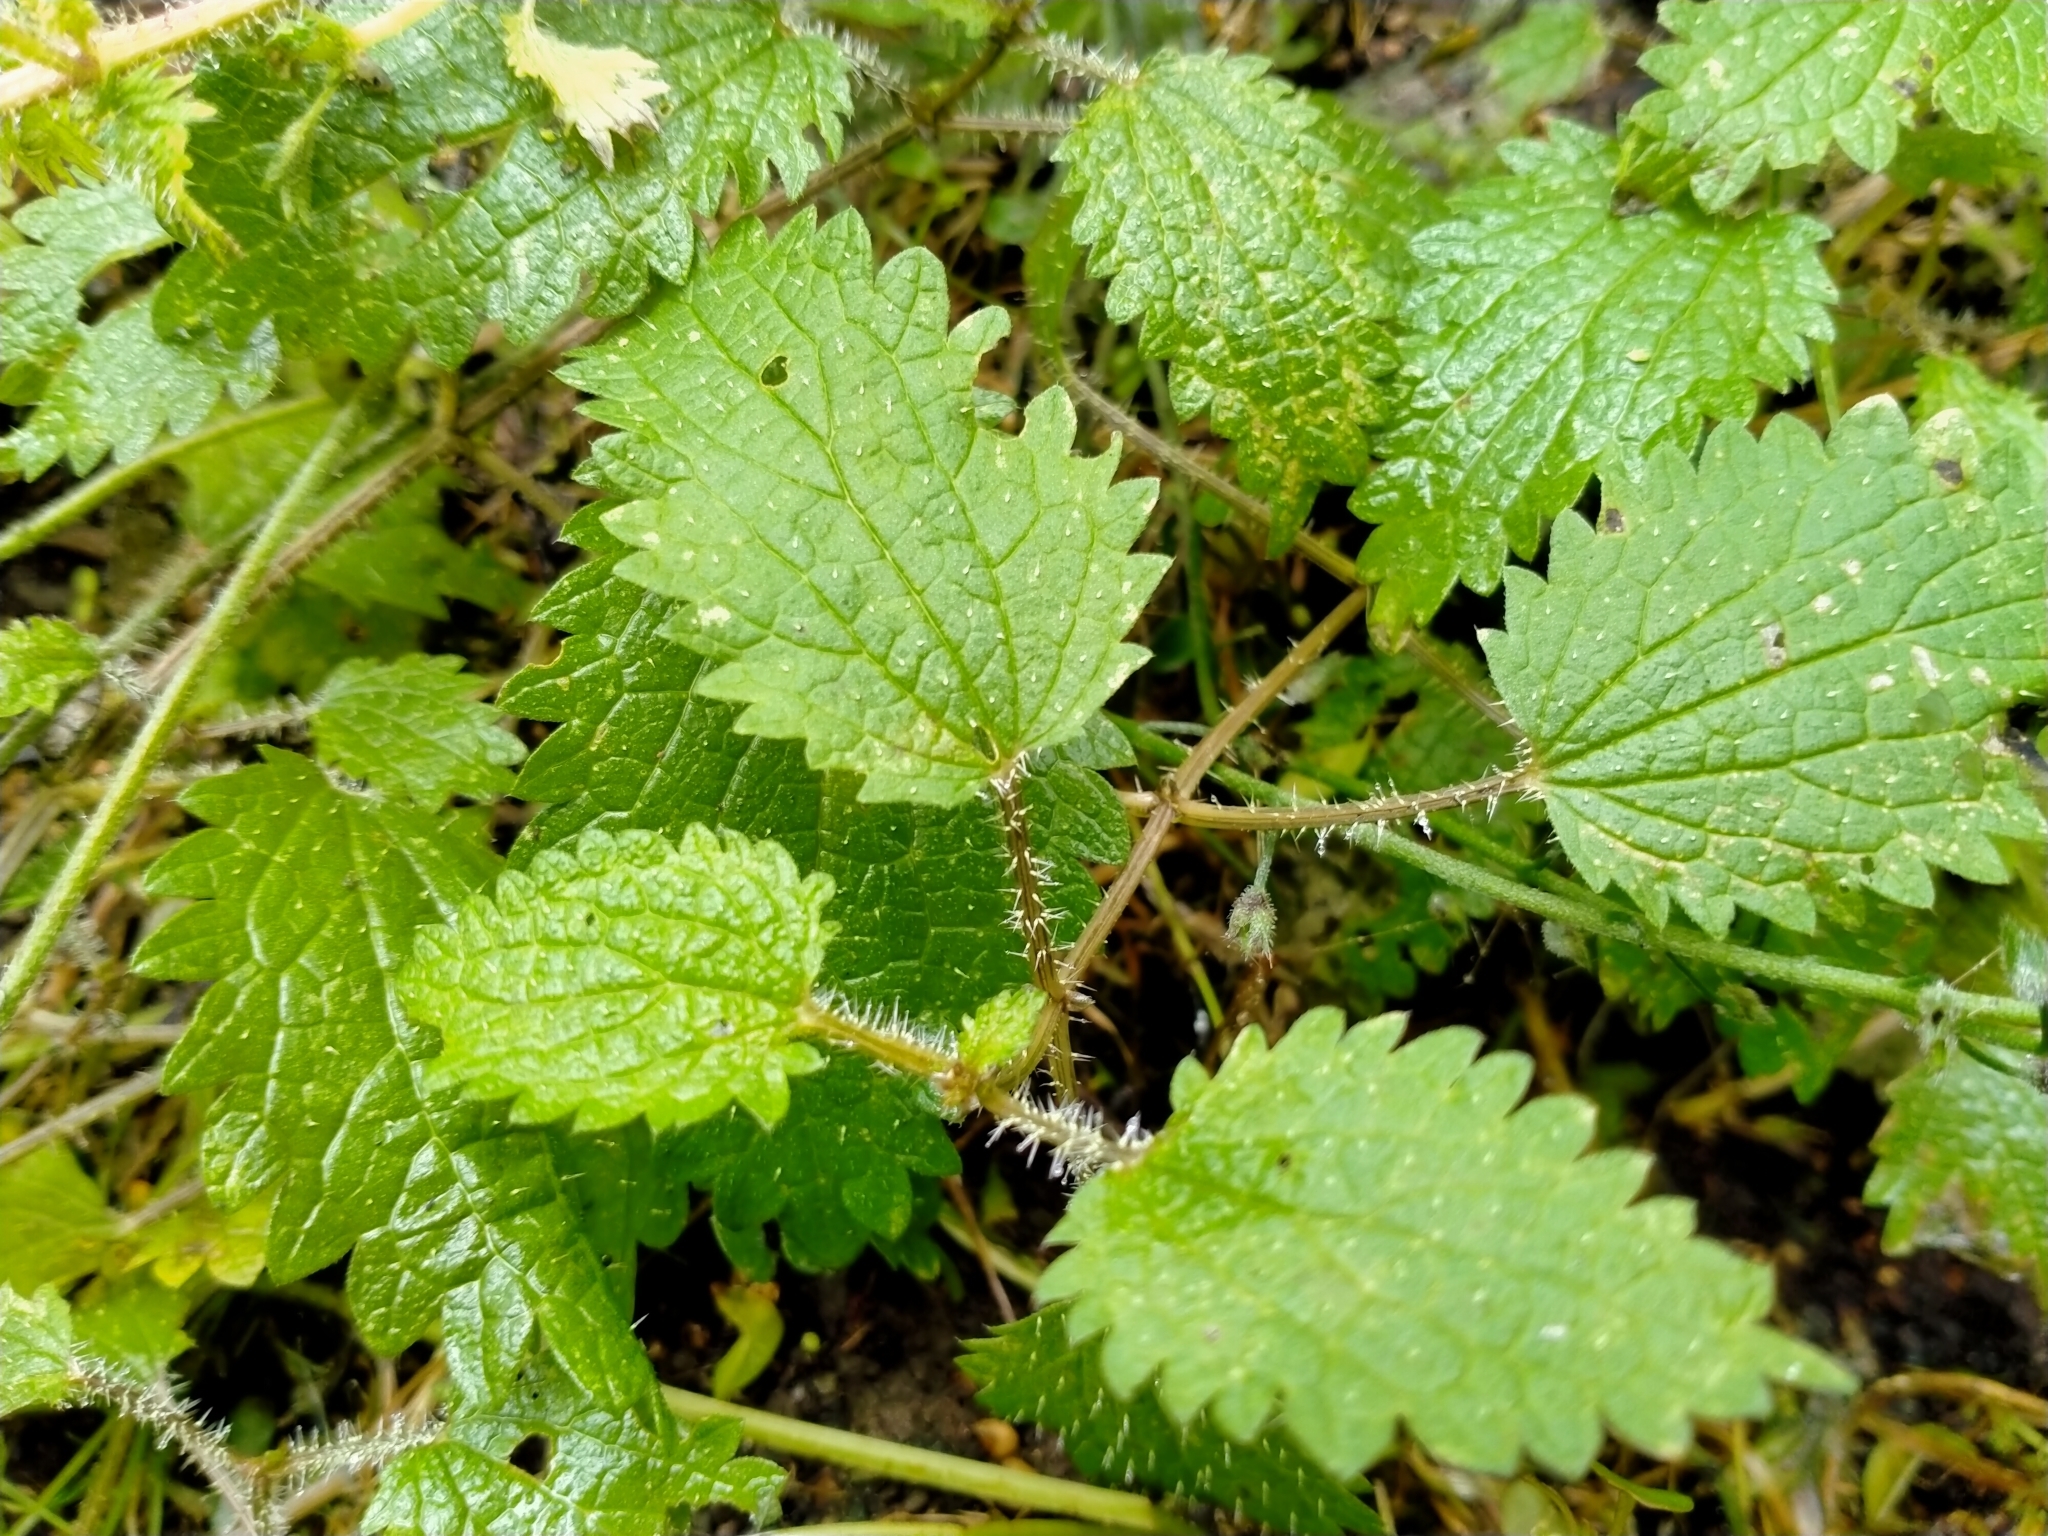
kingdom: Plantae
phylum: Tracheophyta
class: Magnoliopsida
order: Rosales
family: Urticaceae
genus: Urtica
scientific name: Urtica aspera
